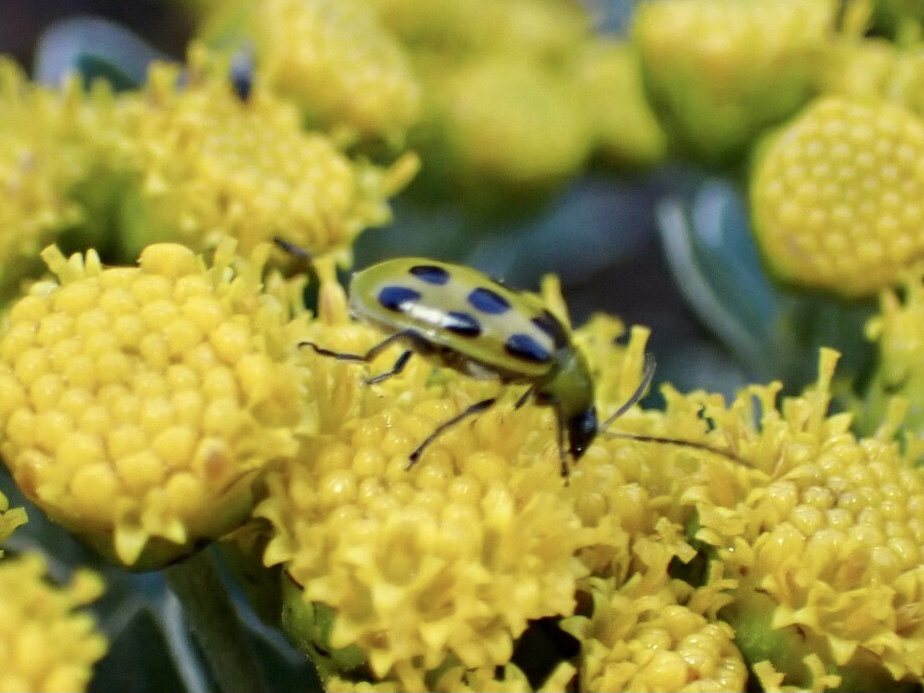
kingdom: Animalia
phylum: Arthropoda
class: Insecta
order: Coleoptera
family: Chrysomelidae
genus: Diabrotica
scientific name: Diabrotica undecimpunctata
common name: Spotted cucumber beetle
